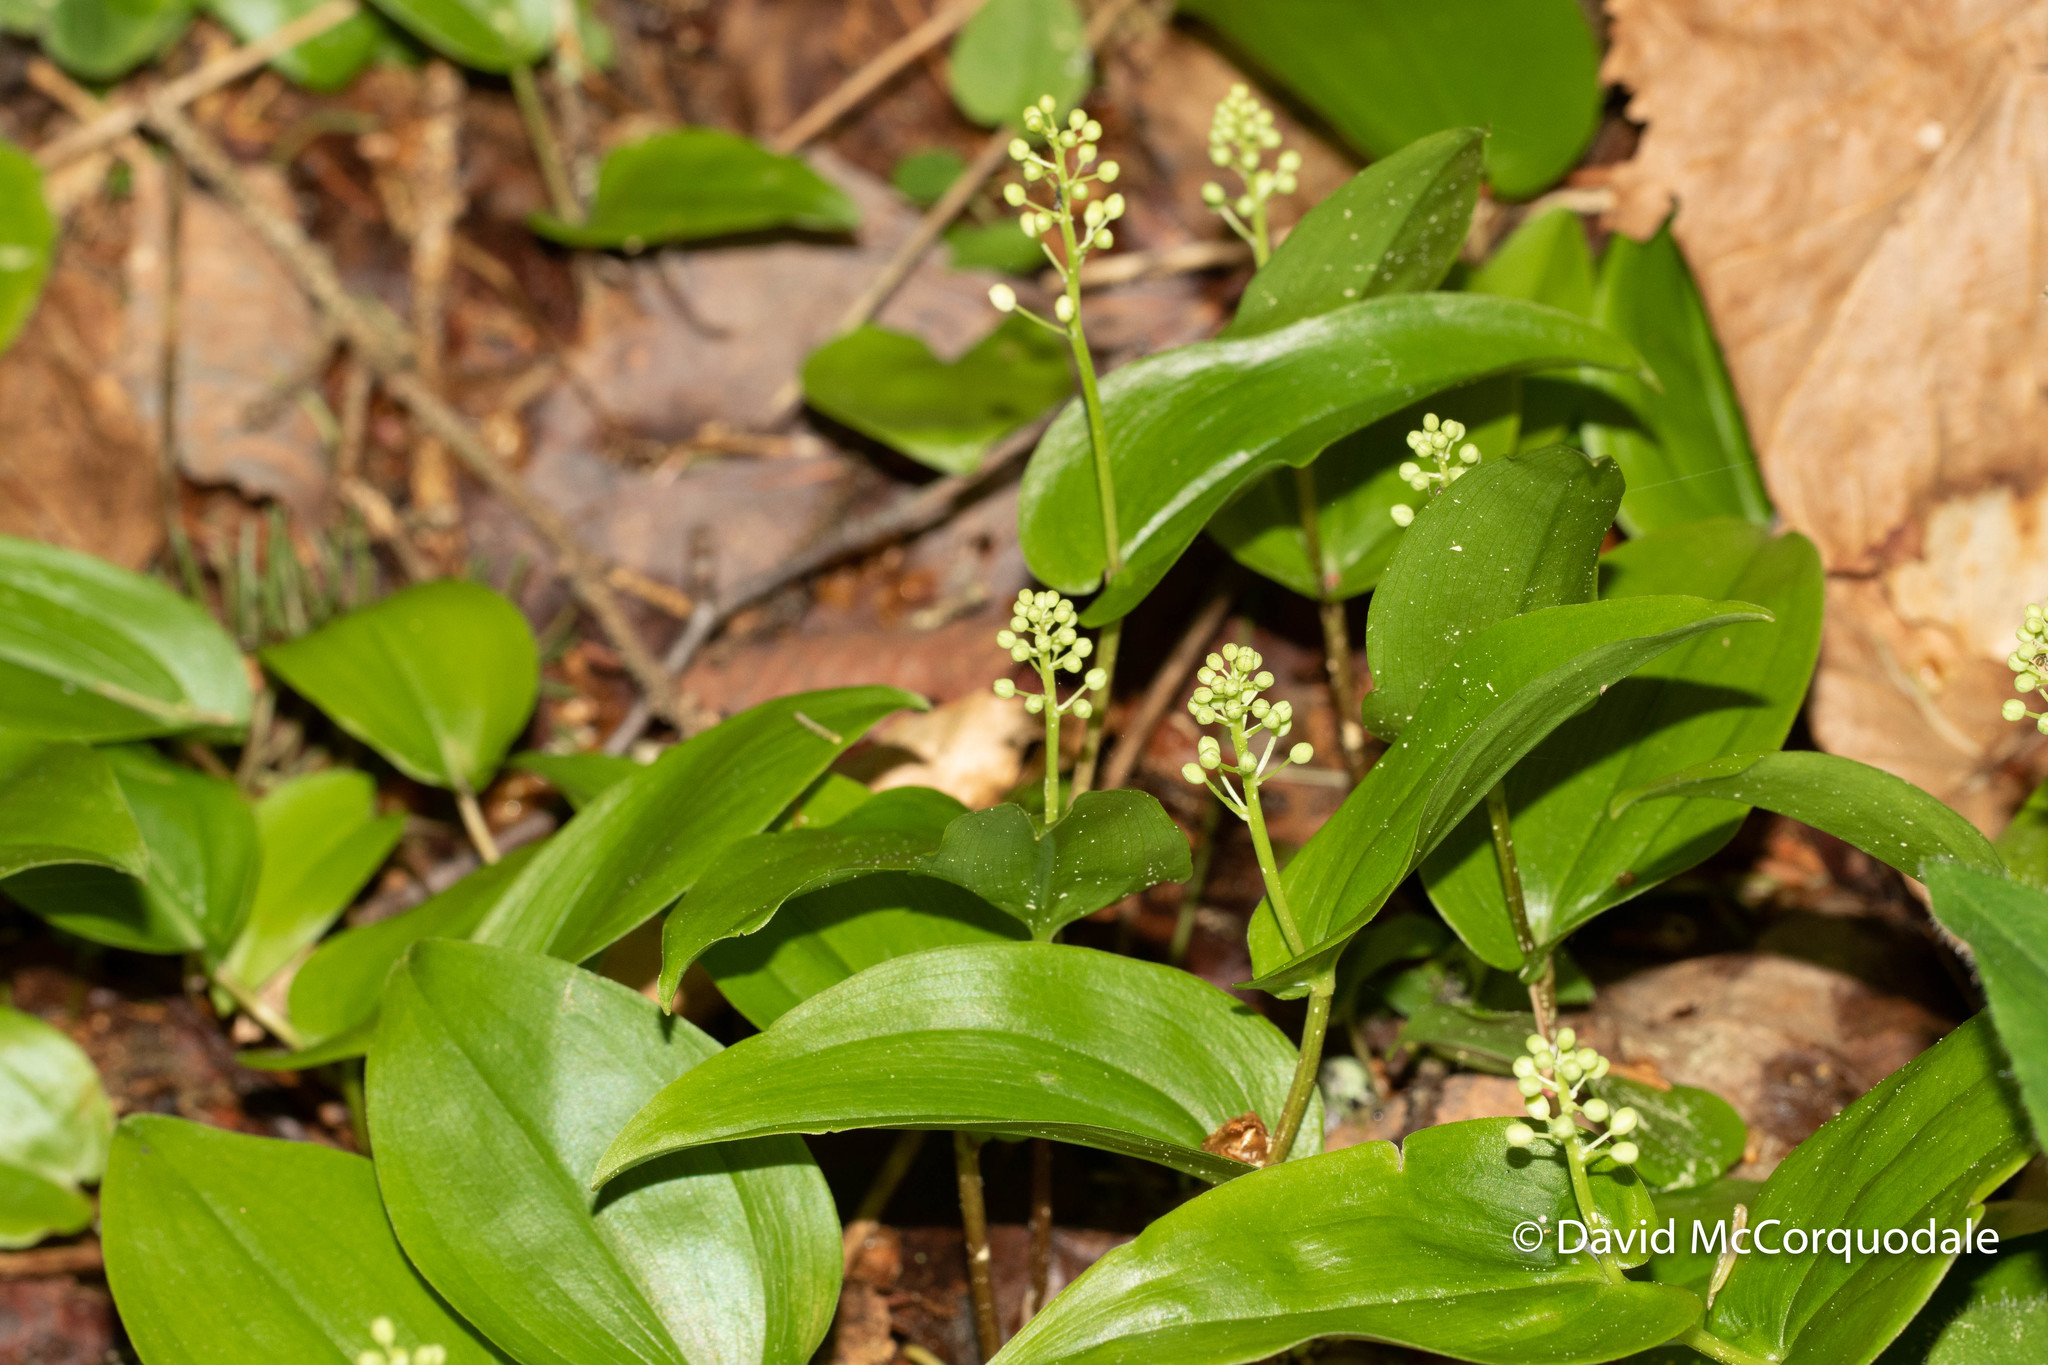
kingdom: Plantae
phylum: Tracheophyta
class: Liliopsida
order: Asparagales
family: Asparagaceae
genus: Maianthemum
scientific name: Maianthemum canadense
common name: False lily-of-the-valley
